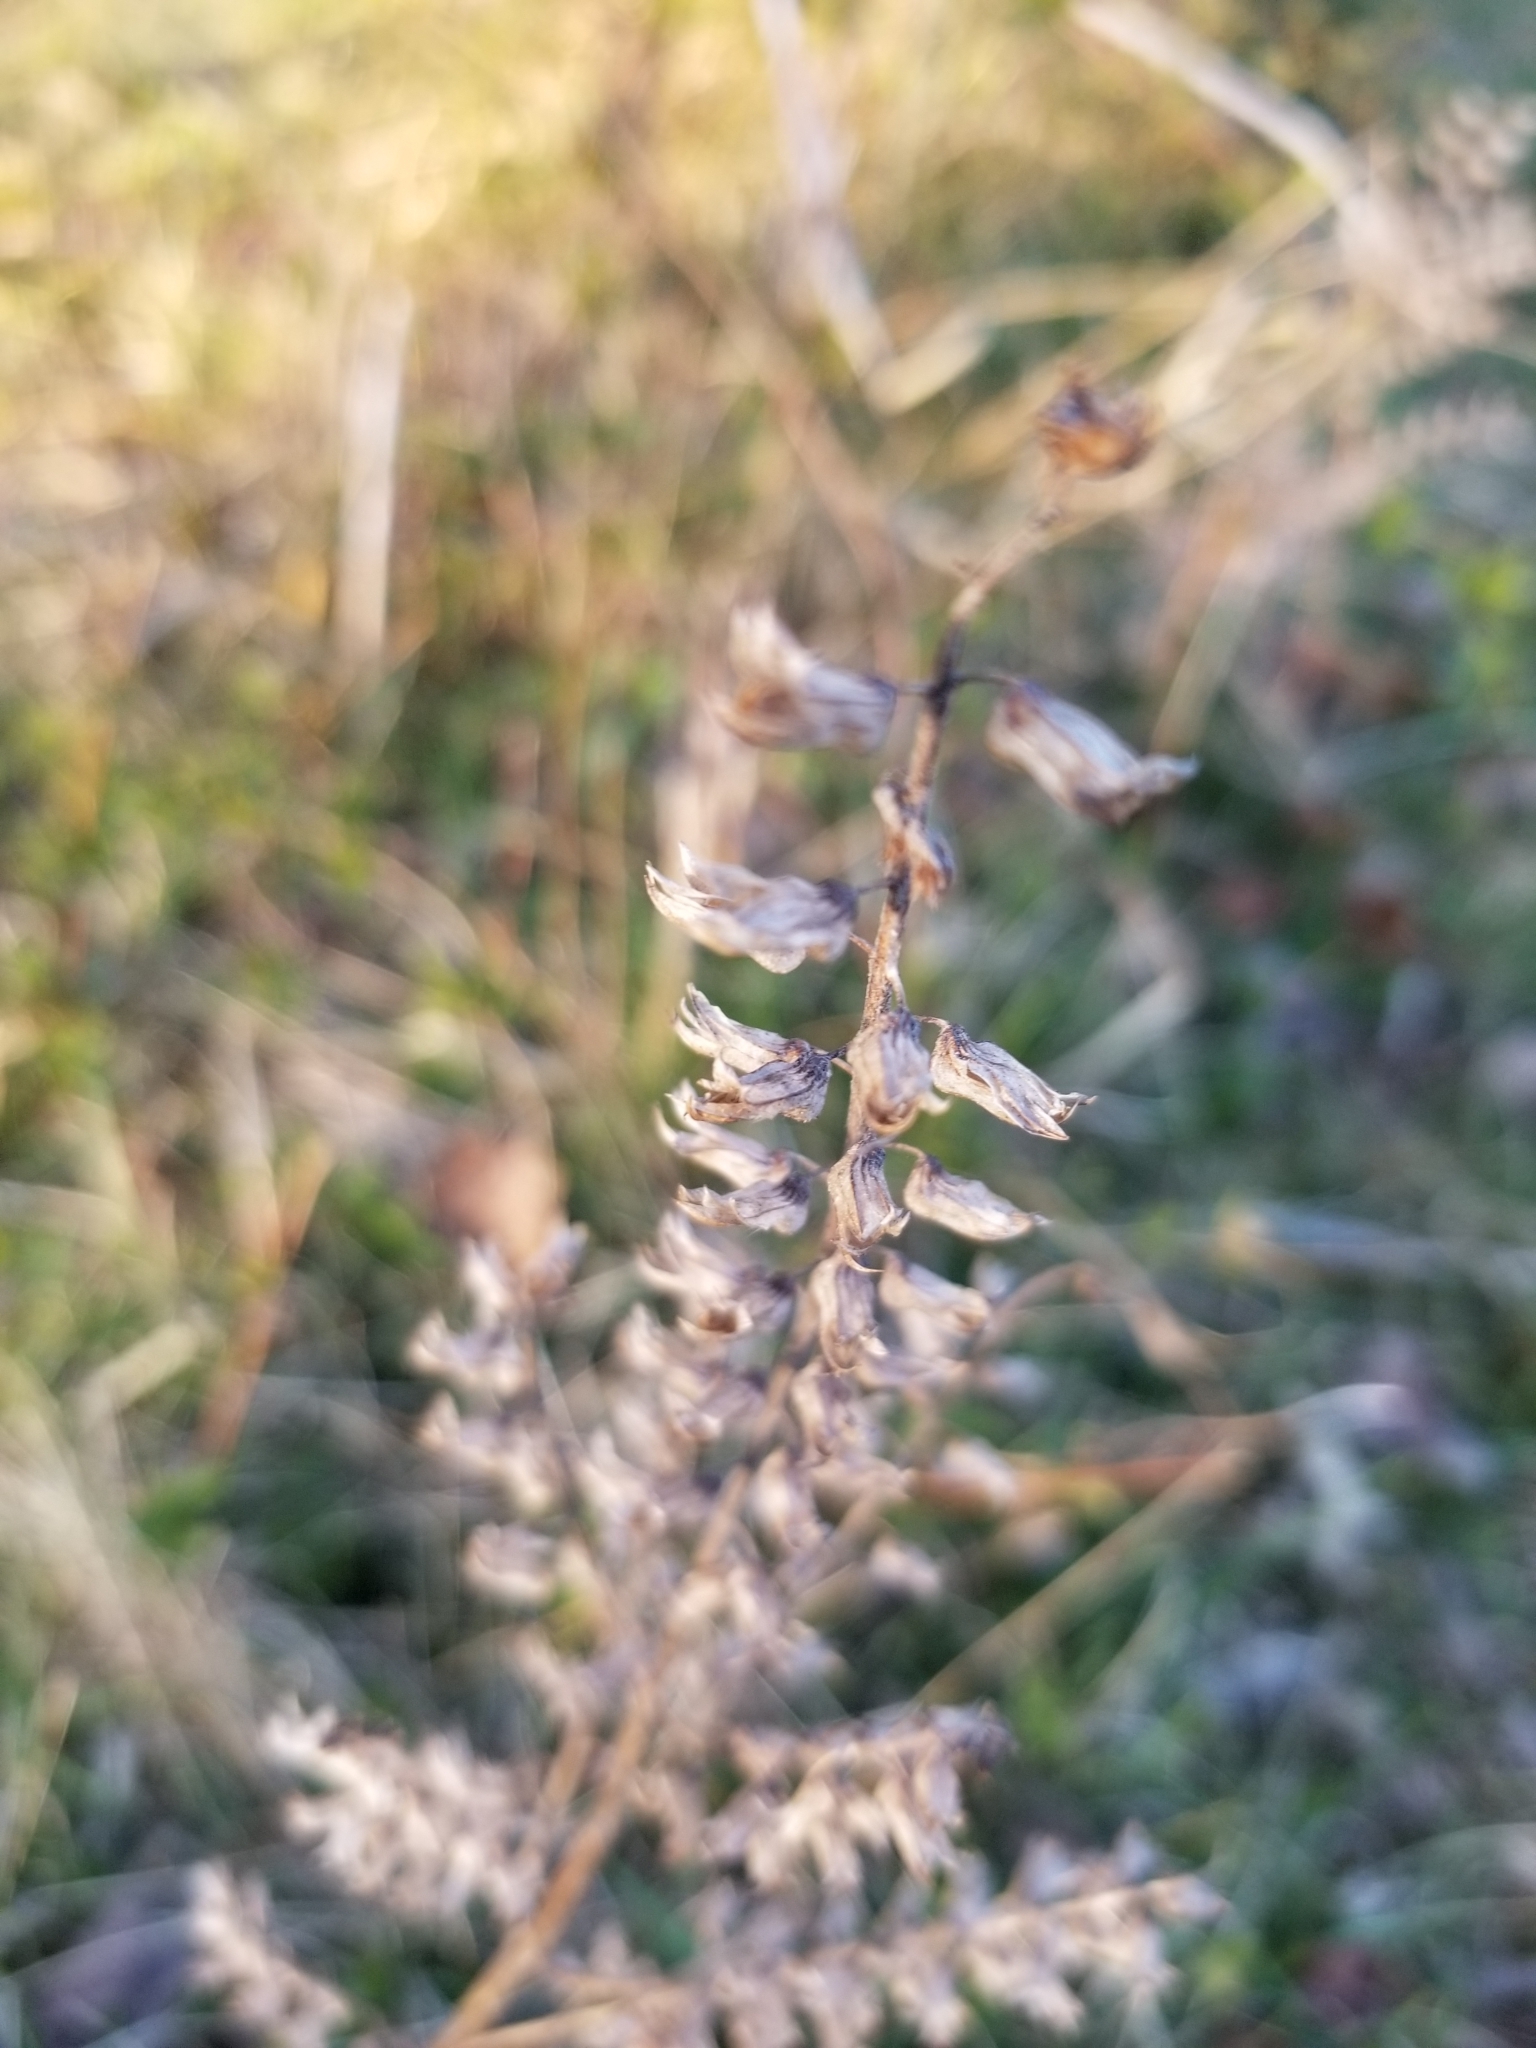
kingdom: Plantae
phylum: Tracheophyta
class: Magnoliopsida
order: Lamiales
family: Lamiaceae
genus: Perilla
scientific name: Perilla frutescens
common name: Perilla
